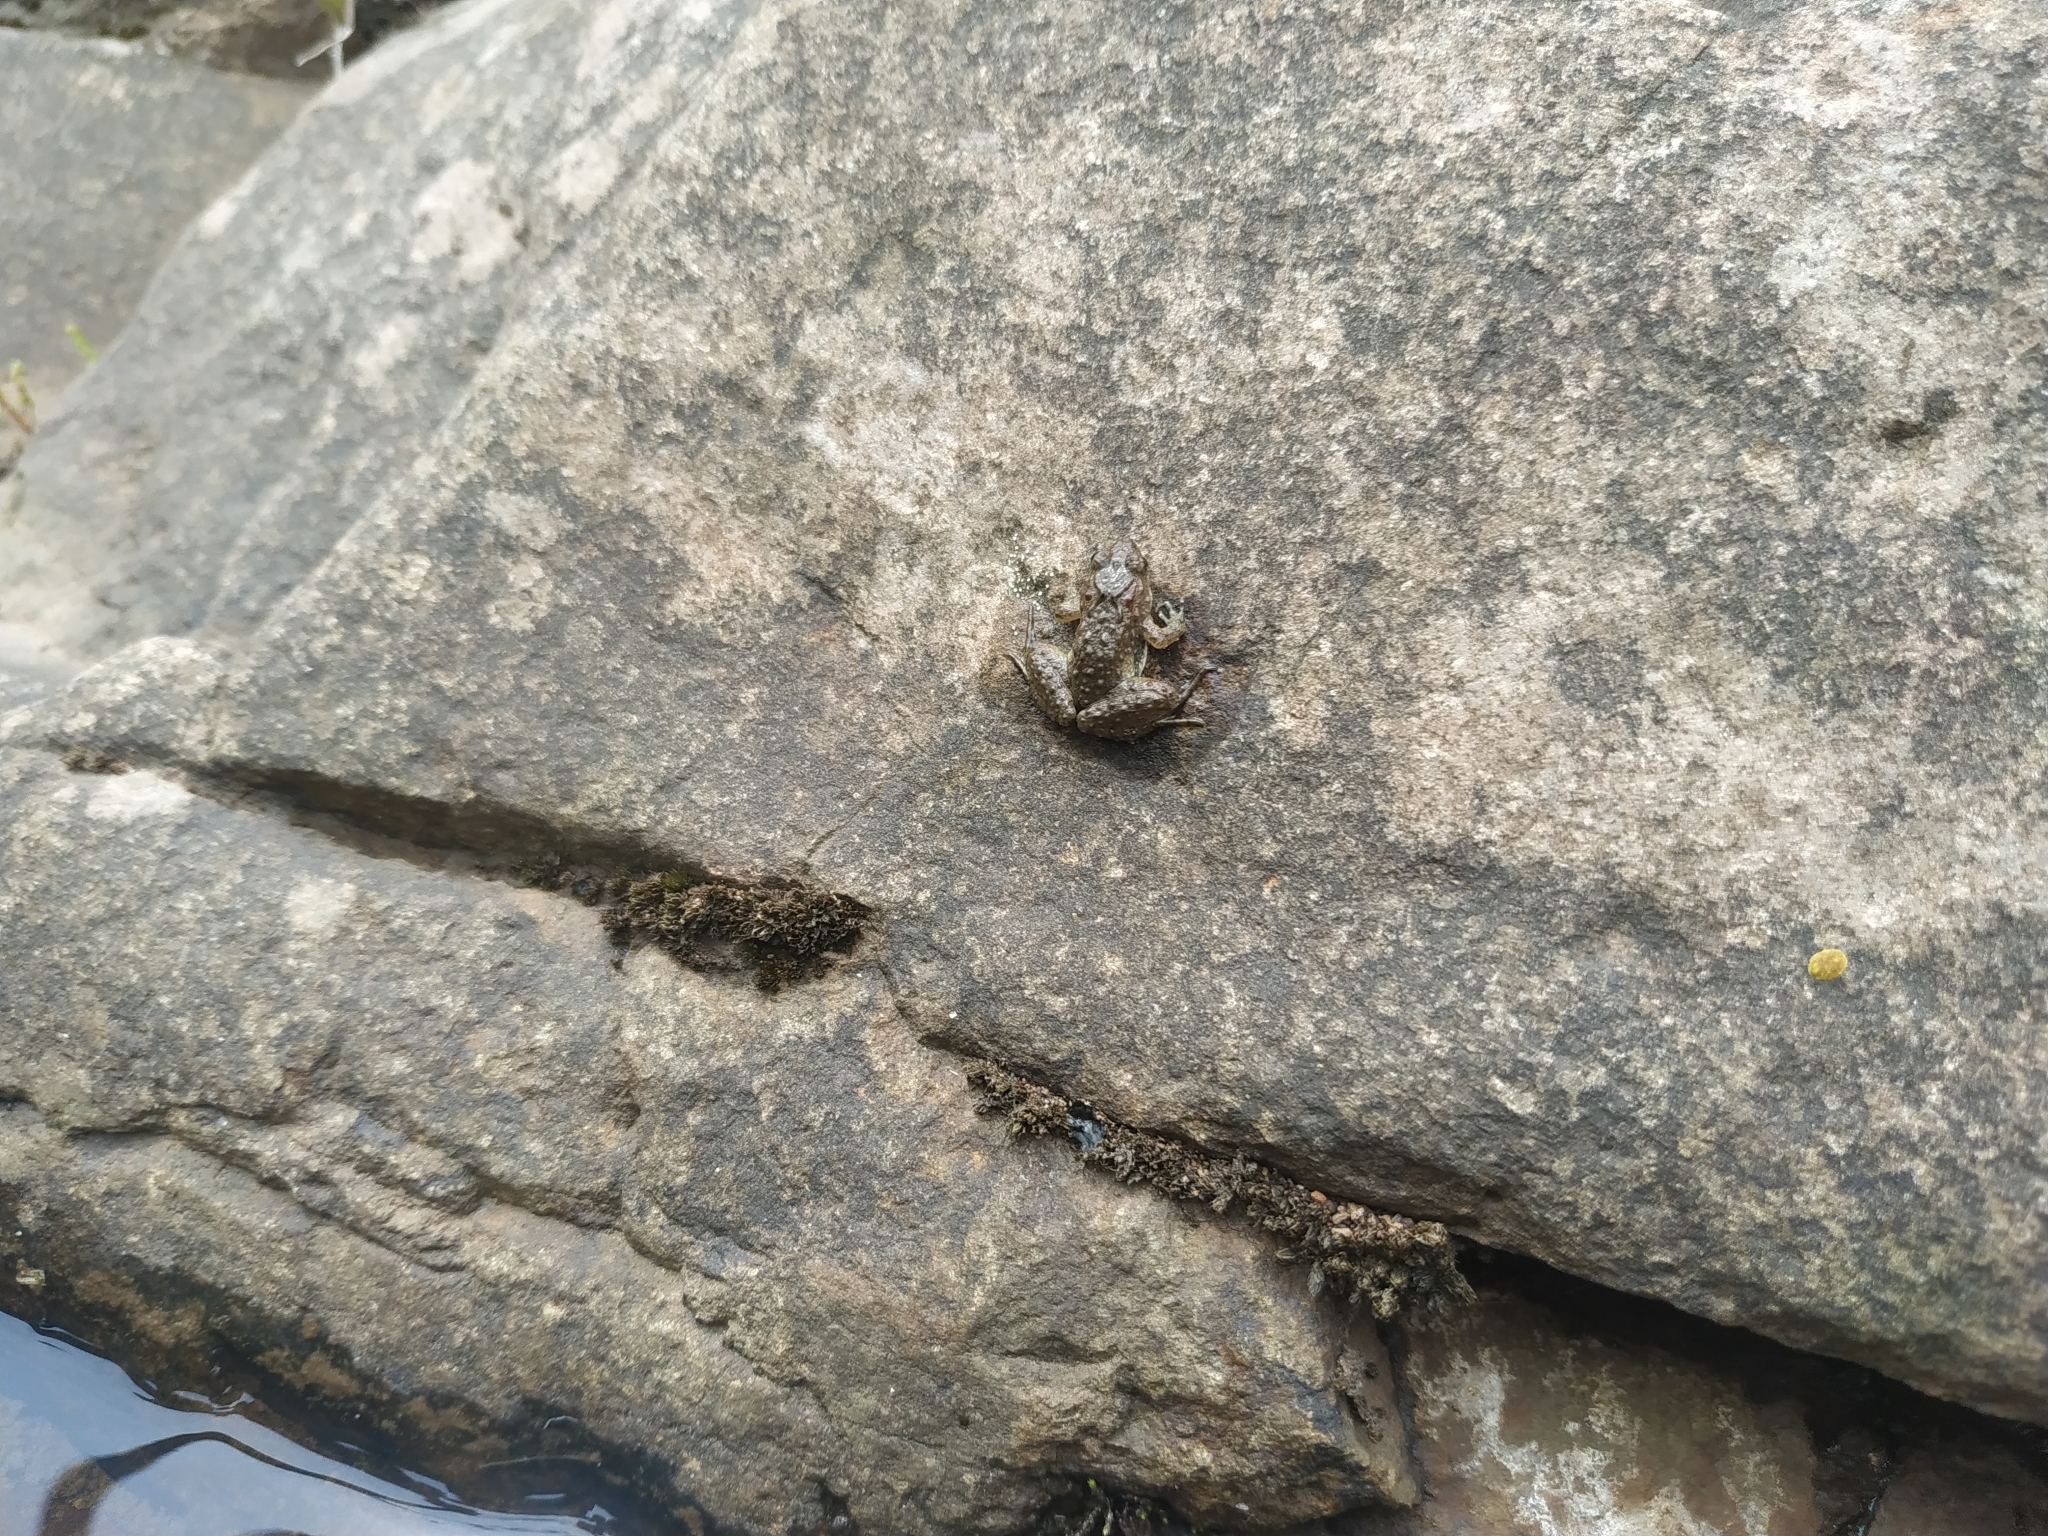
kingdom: Animalia
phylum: Chordata
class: Amphibia
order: Anura
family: Leptodactylidae
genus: Pseudopaludicola
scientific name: Pseudopaludicola falcipes
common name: Hensel’s swamp frog
